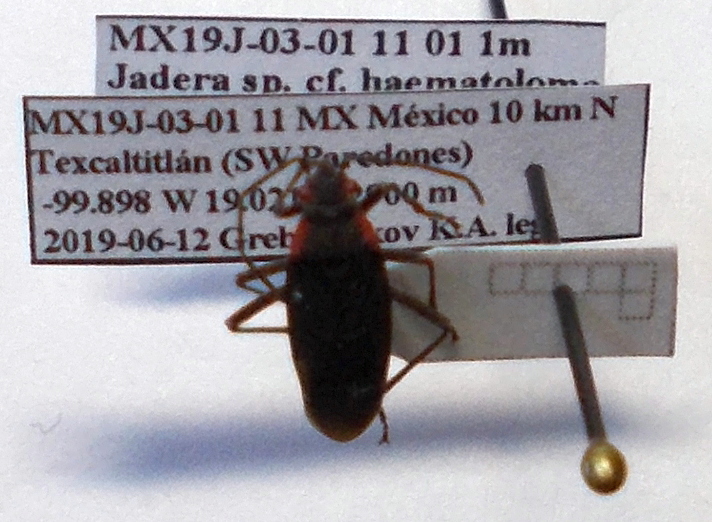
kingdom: Animalia
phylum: Arthropoda
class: Insecta
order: Hemiptera
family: Rhopalidae
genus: Jadera
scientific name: Jadera haematoloma
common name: Red-shouldered bug
